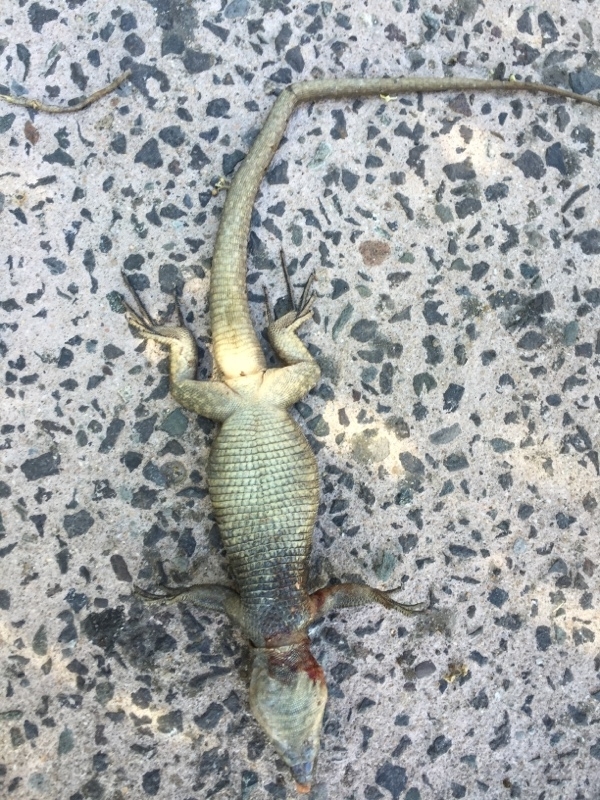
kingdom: Animalia
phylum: Chordata
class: Squamata
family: Lacertidae
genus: Gallotia
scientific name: Gallotia stehlini
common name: Gran canaria giant lizard
